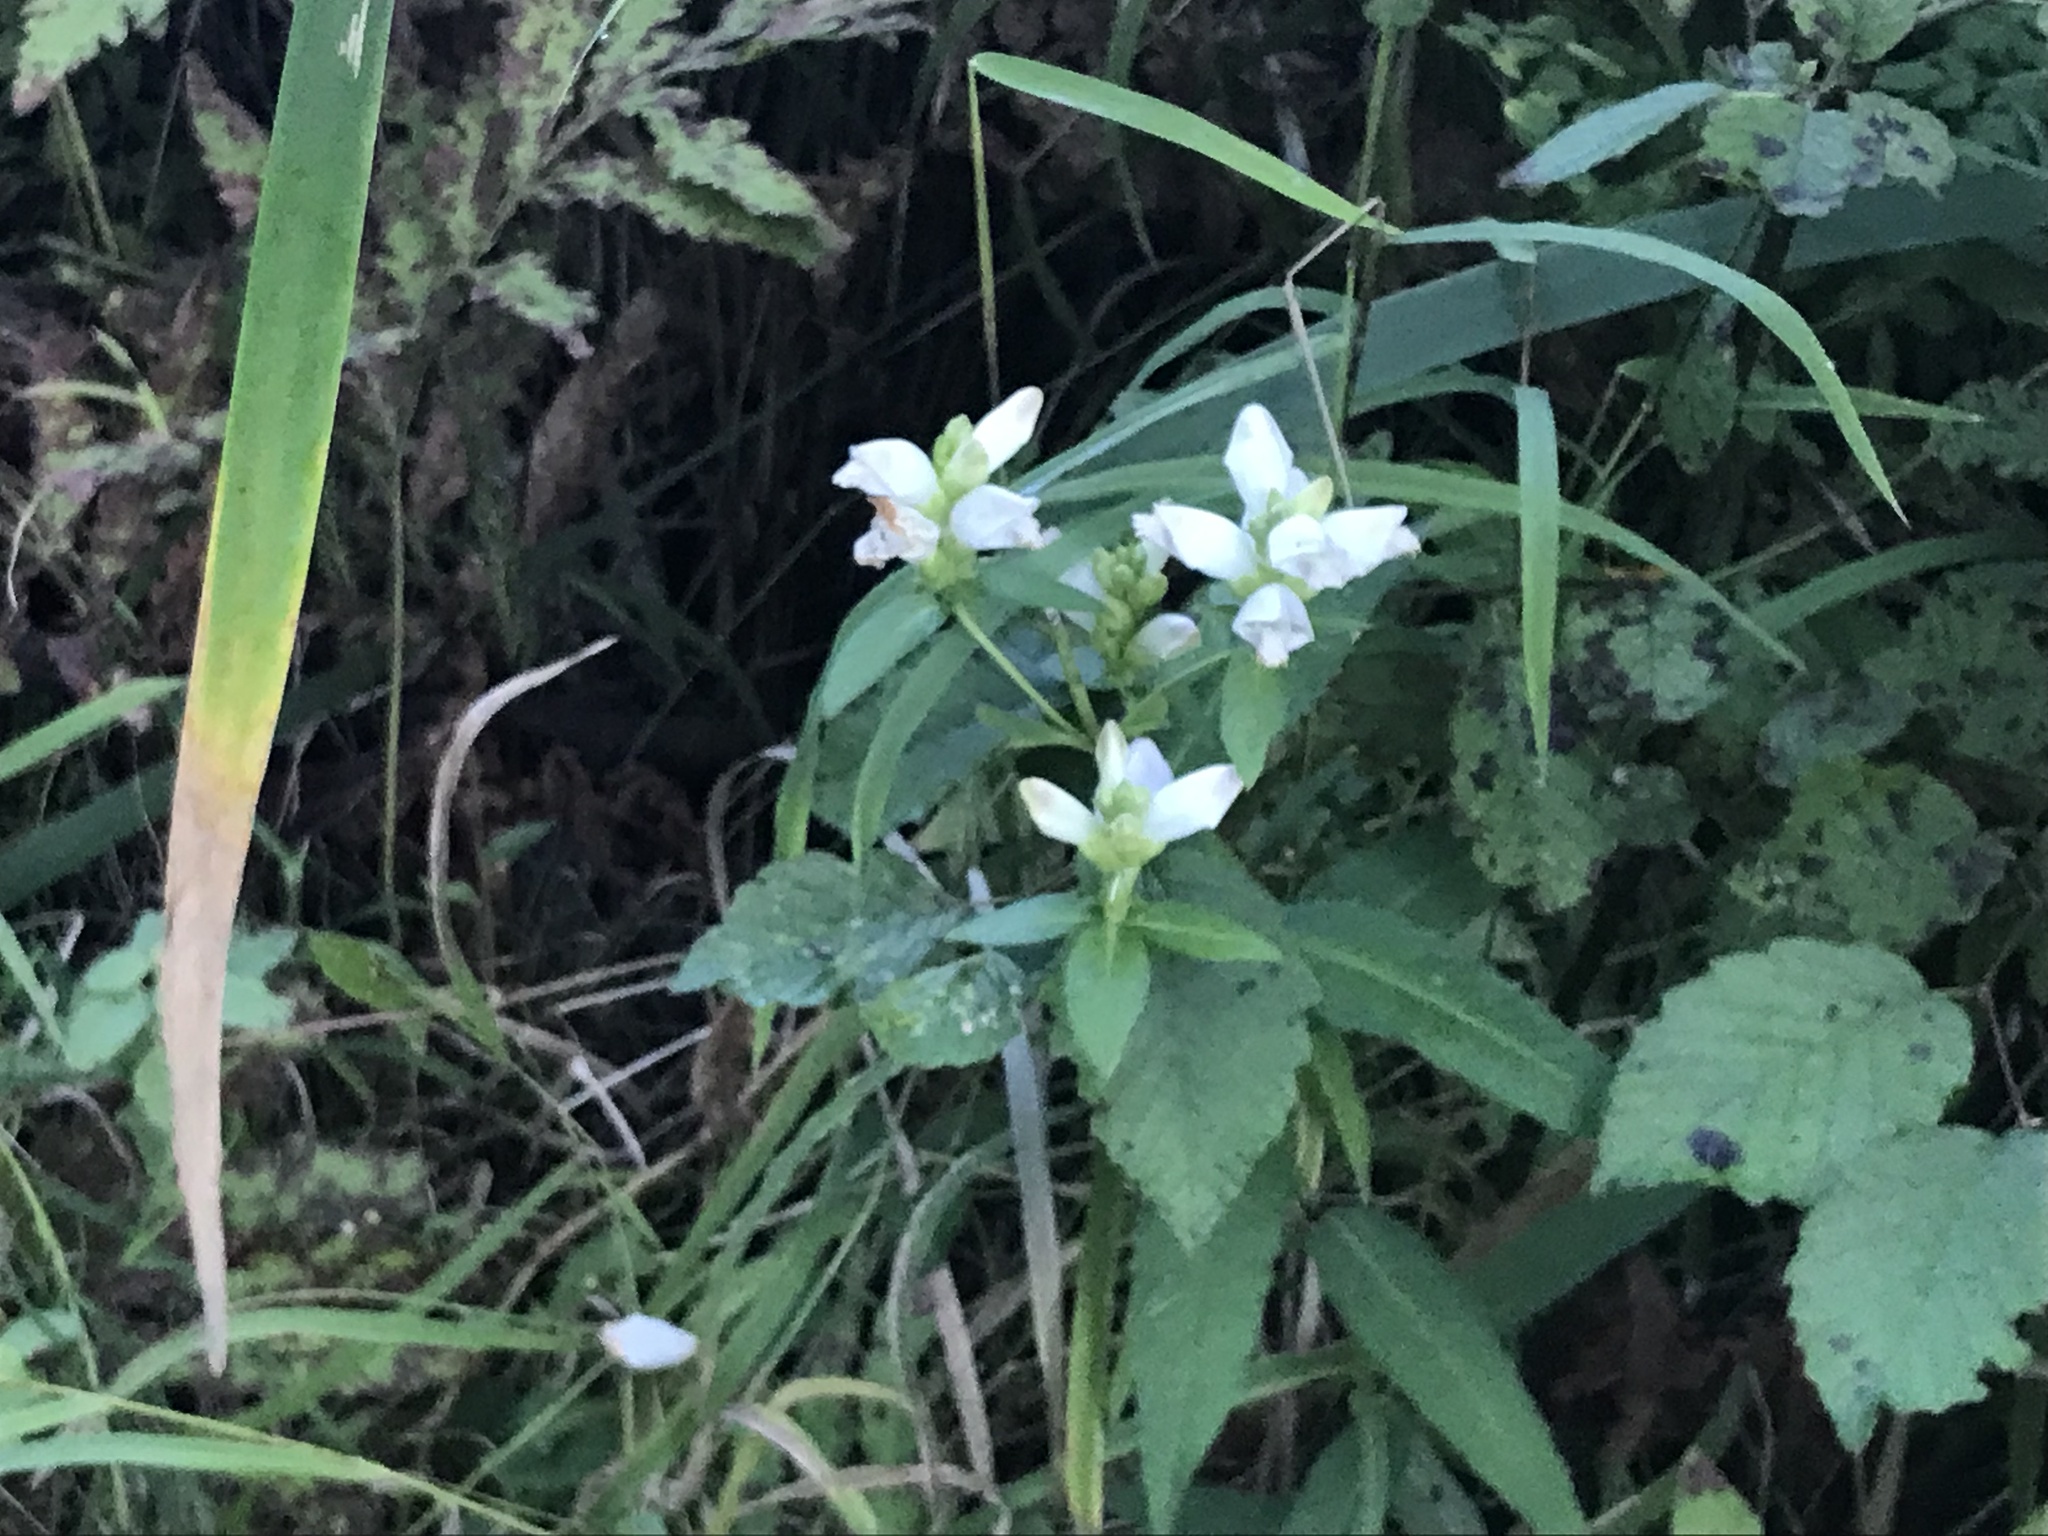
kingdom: Plantae
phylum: Tracheophyta
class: Magnoliopsida
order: Lamiales
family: Plantaginaceae
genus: Chelone
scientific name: Chelone glabra
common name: Snakehead
